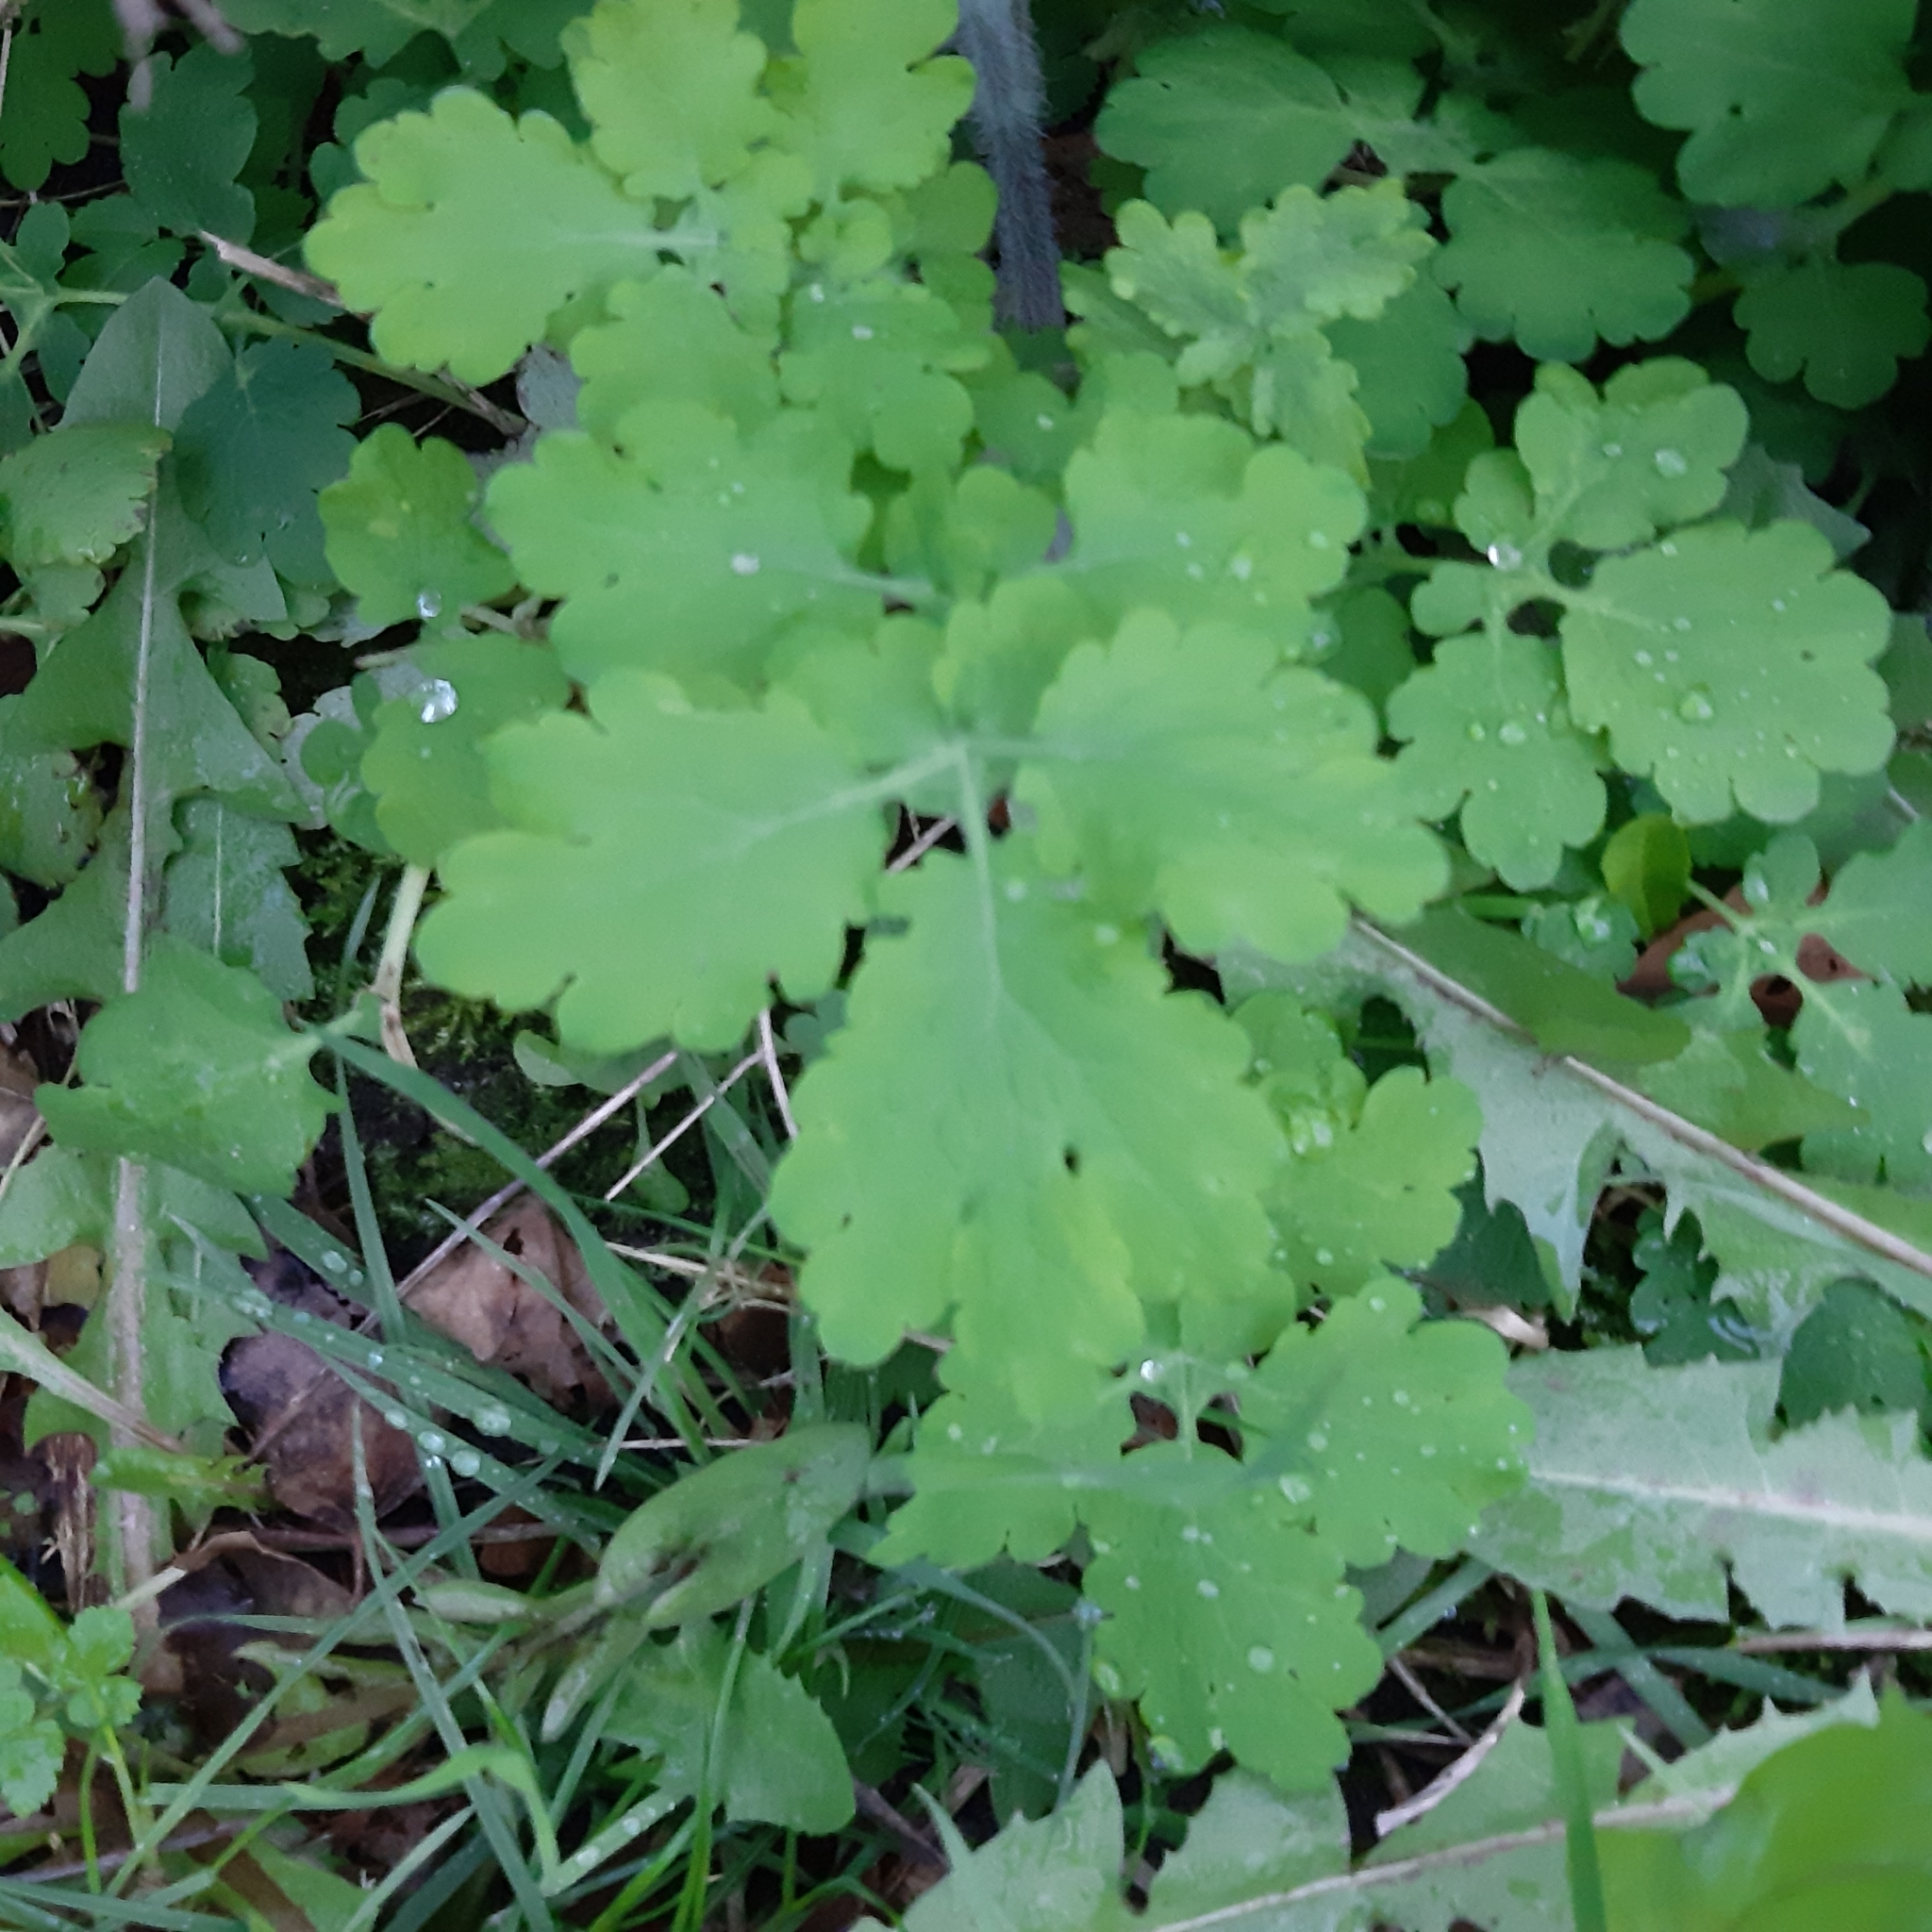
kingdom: Plantae
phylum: Tracheophyta
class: Magnoliopsida
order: Ranunculales
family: Papaveraceae
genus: Chelidonium
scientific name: Chelidonium majus
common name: Greater celandine
